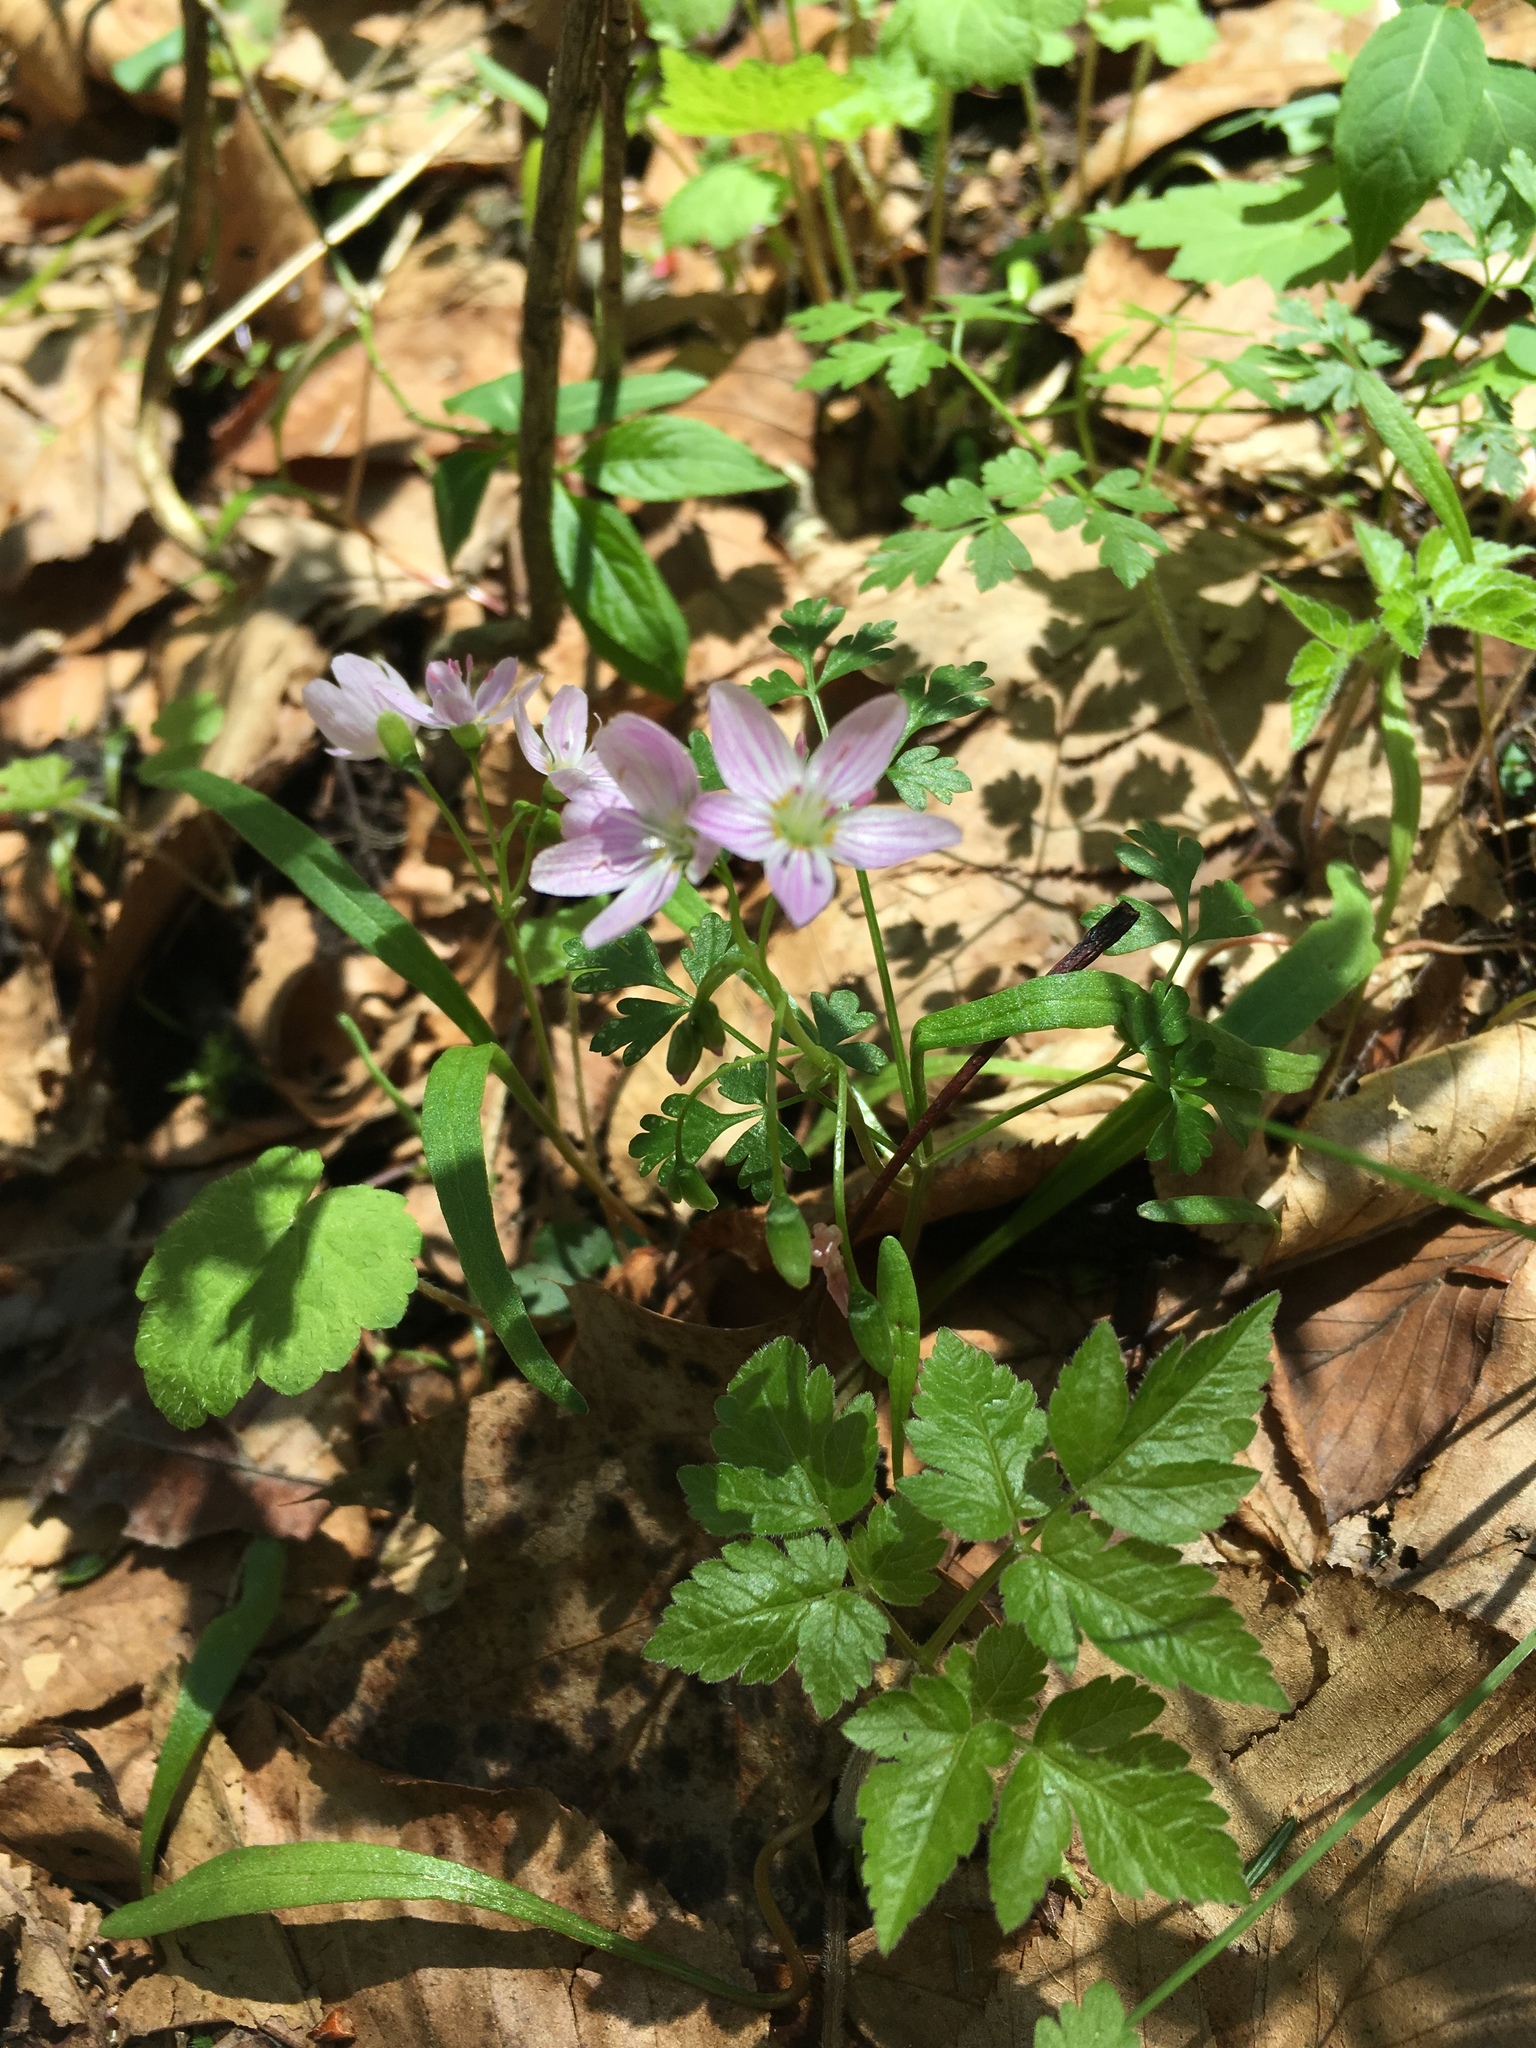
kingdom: Plantae
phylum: Tracheophyta
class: Magnoliopsida
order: Caryophyllales
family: Montiaceae
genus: Claytonia
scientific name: Claytonia virginica
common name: Virginia springbeauty
